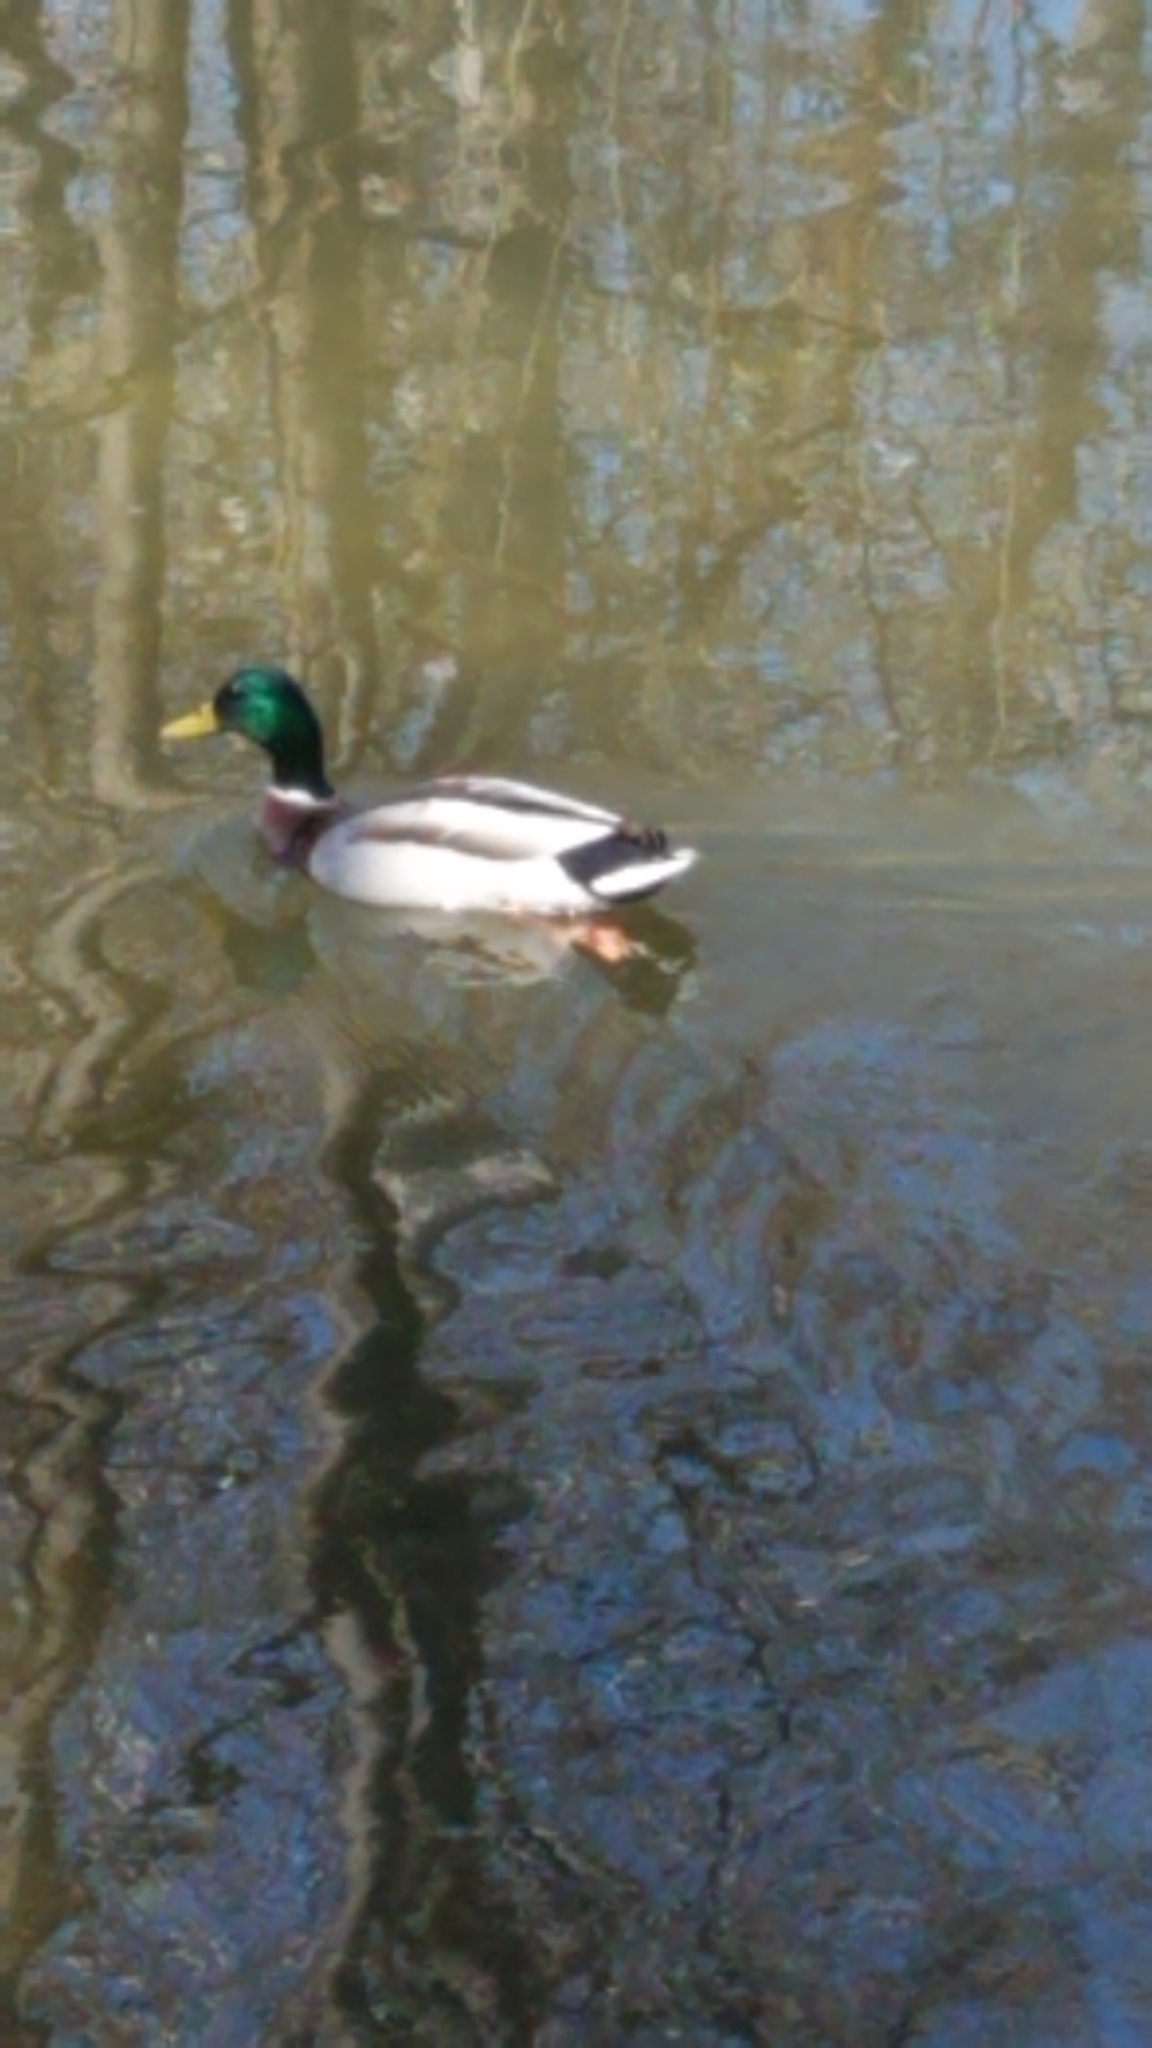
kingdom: Animalia
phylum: Chordata
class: Aves
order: Anseriformes
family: Anatidae
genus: Anas
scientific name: Anas platyrhynchos
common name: Mallard
